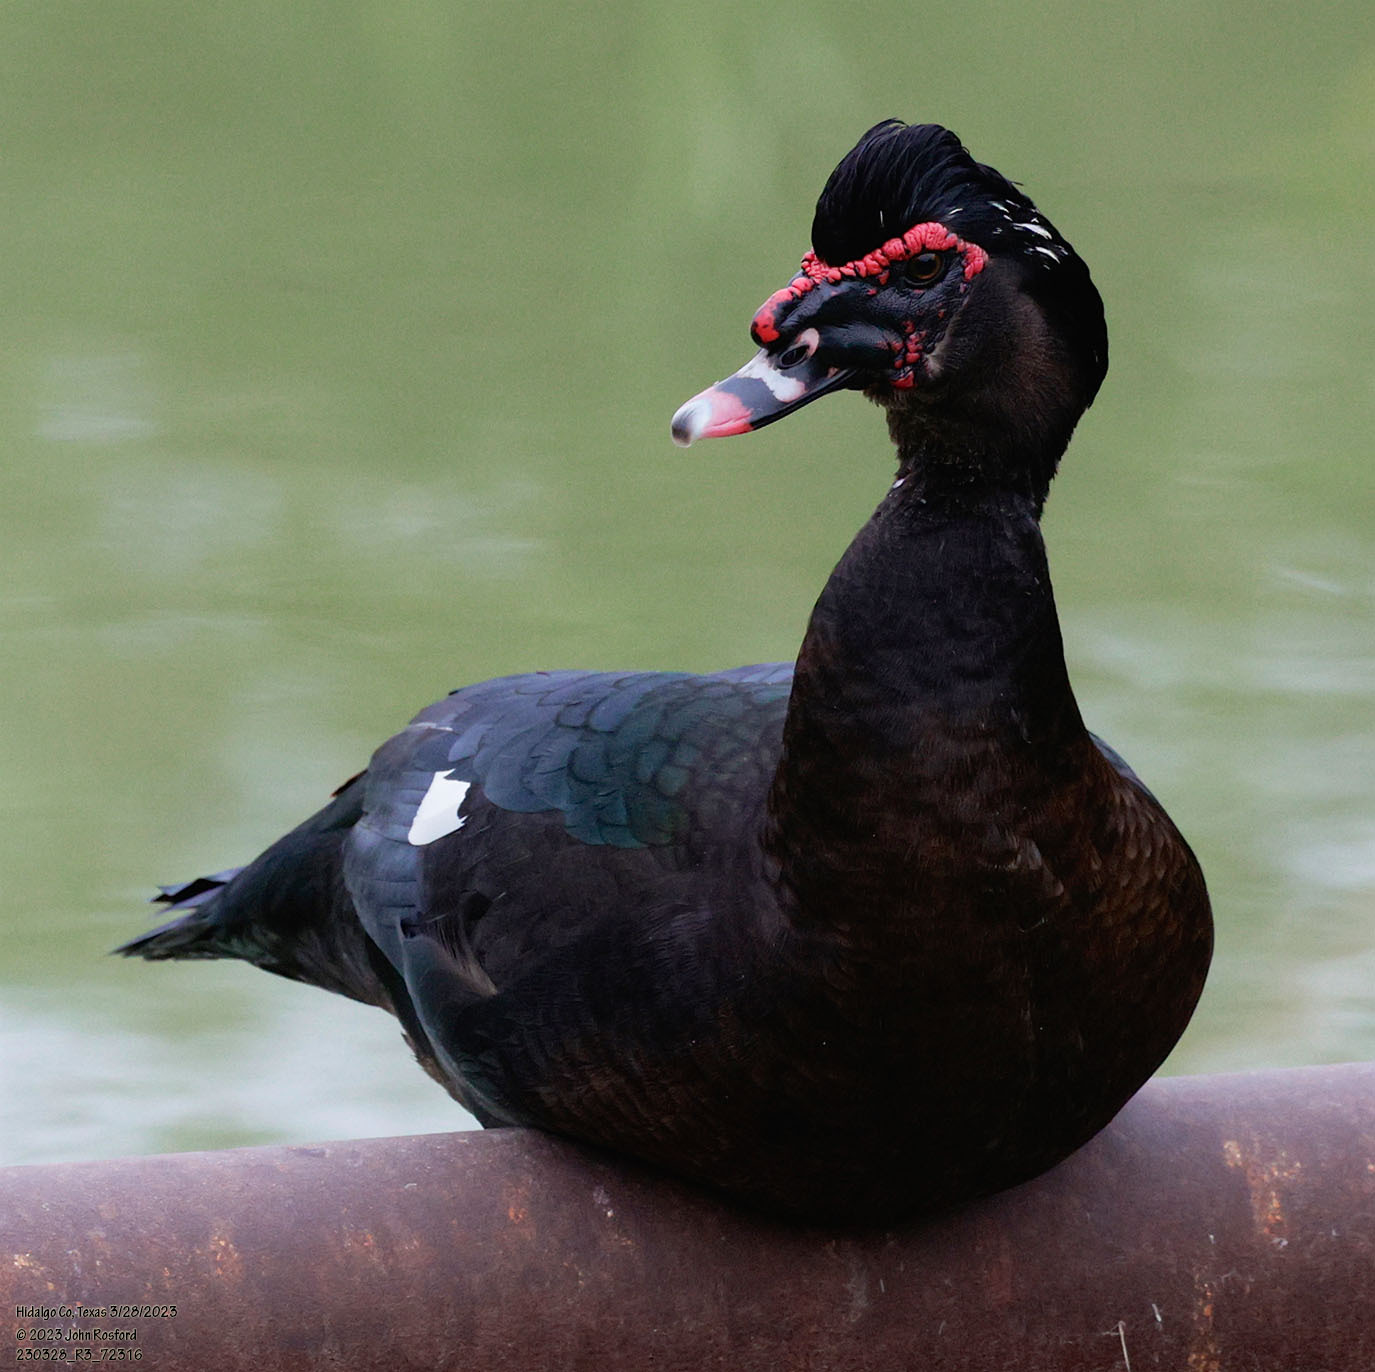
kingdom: Animalia
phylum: Chordata
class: Aves
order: Anseriformes
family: Anatidae
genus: Cairina
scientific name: Cairina moschata
